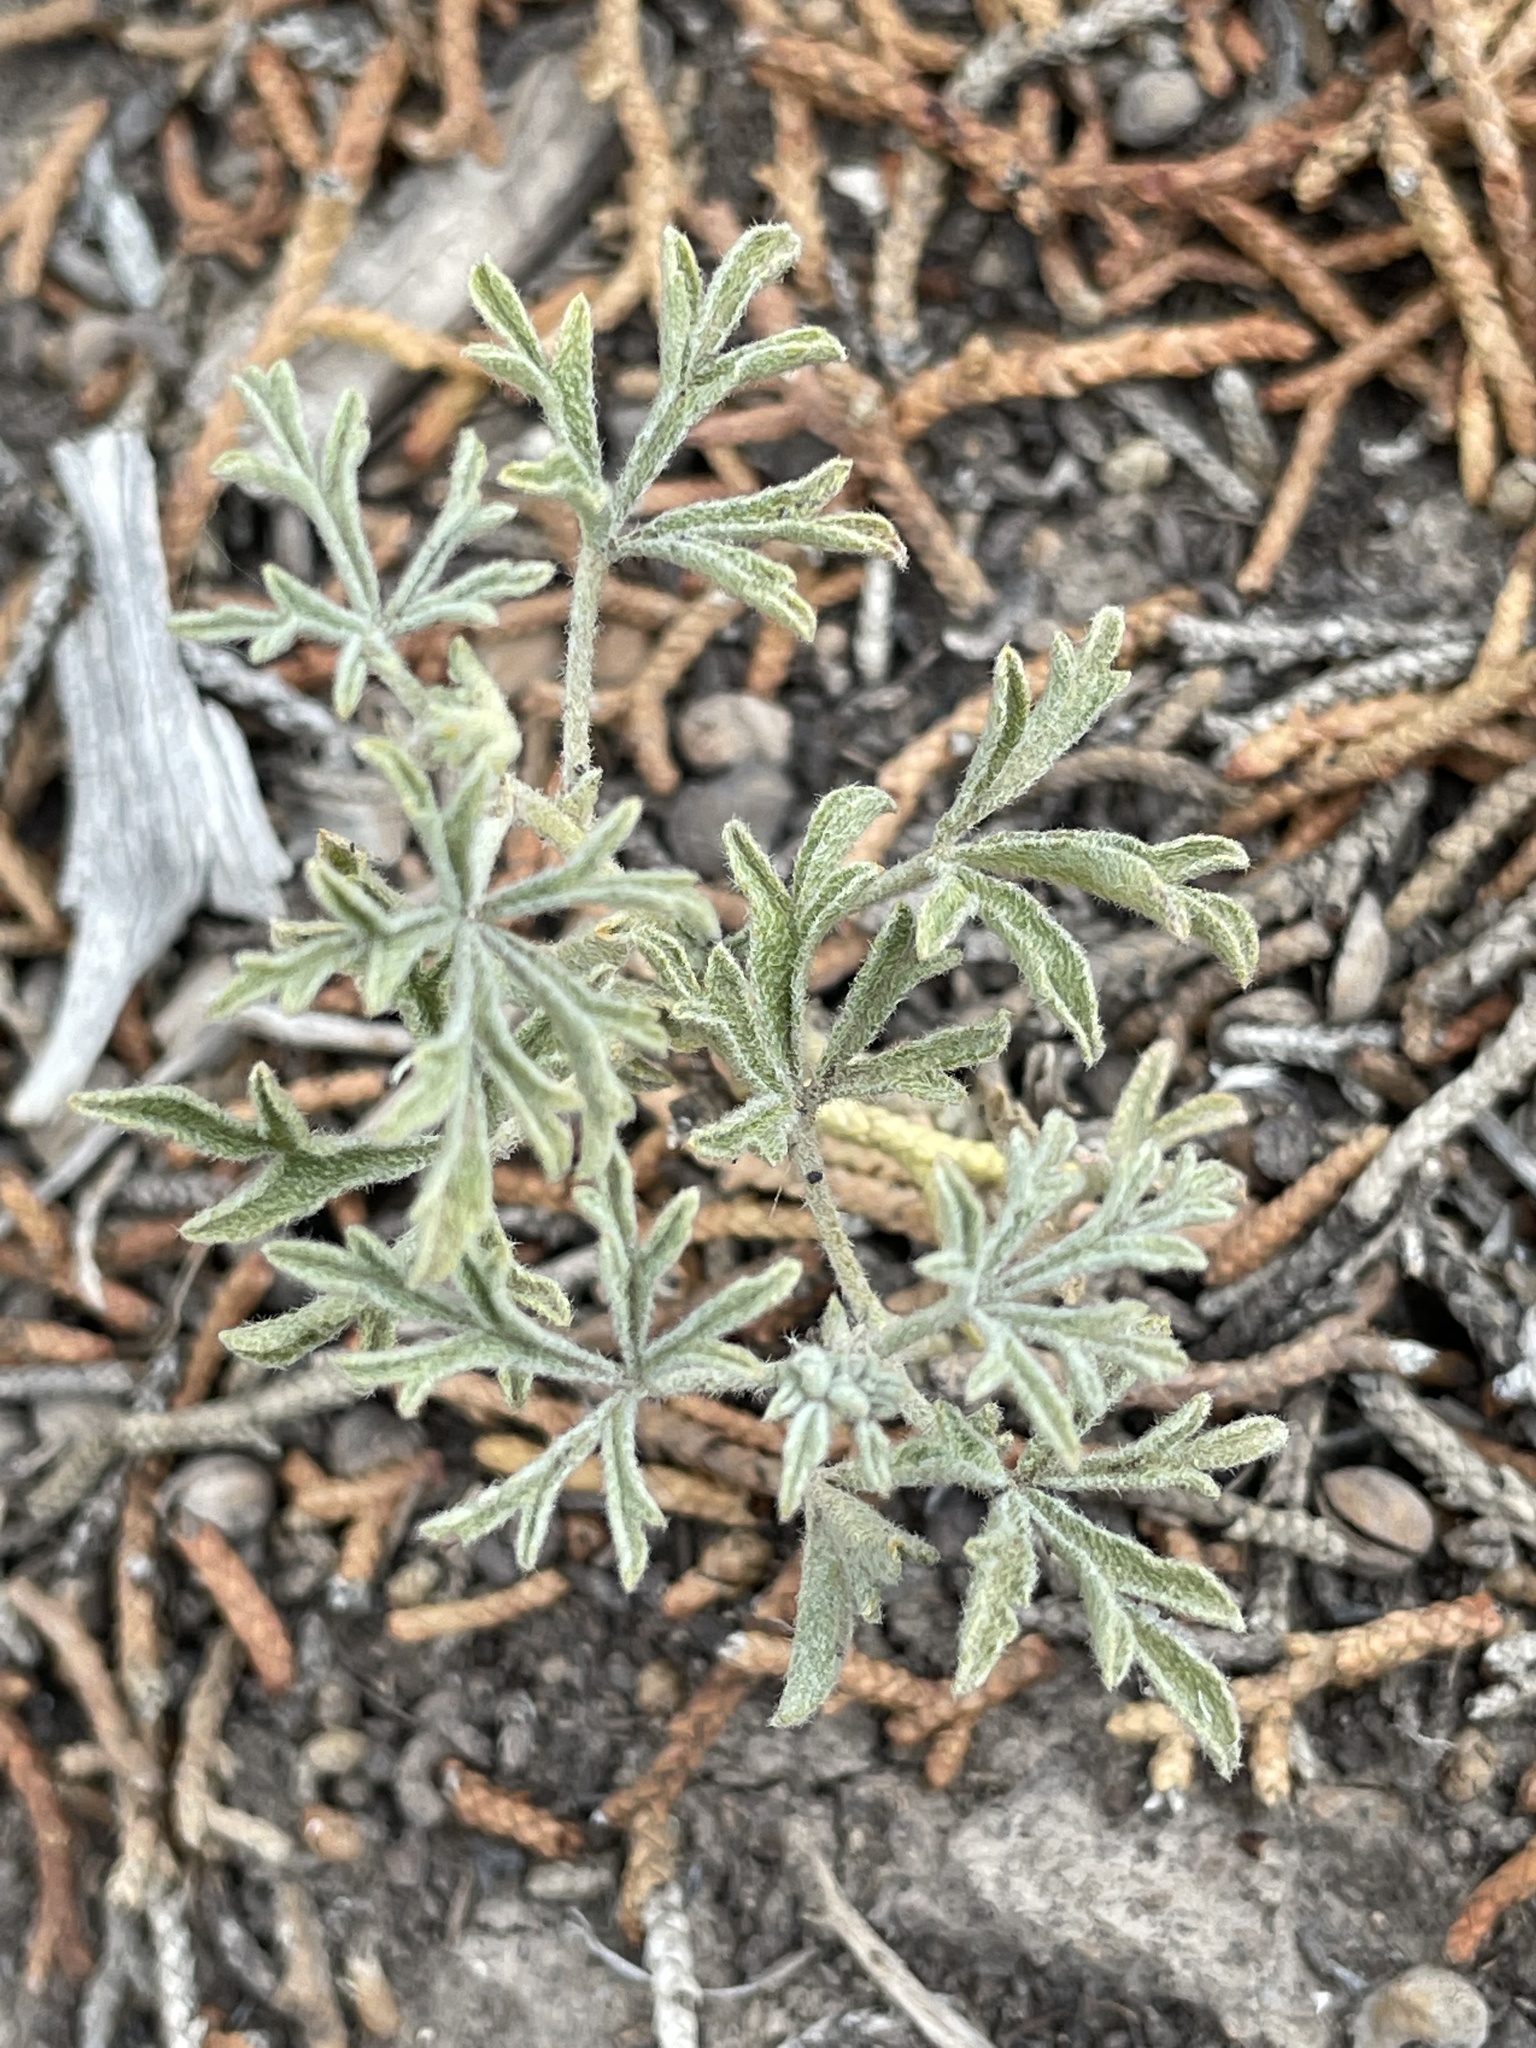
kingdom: Plantae
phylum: Tracheophyta
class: Magnoliopsida
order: Malvales
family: Malvaceae
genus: Sphaeralcea
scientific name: Sphaeralcea coccinea
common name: Moss-rose
